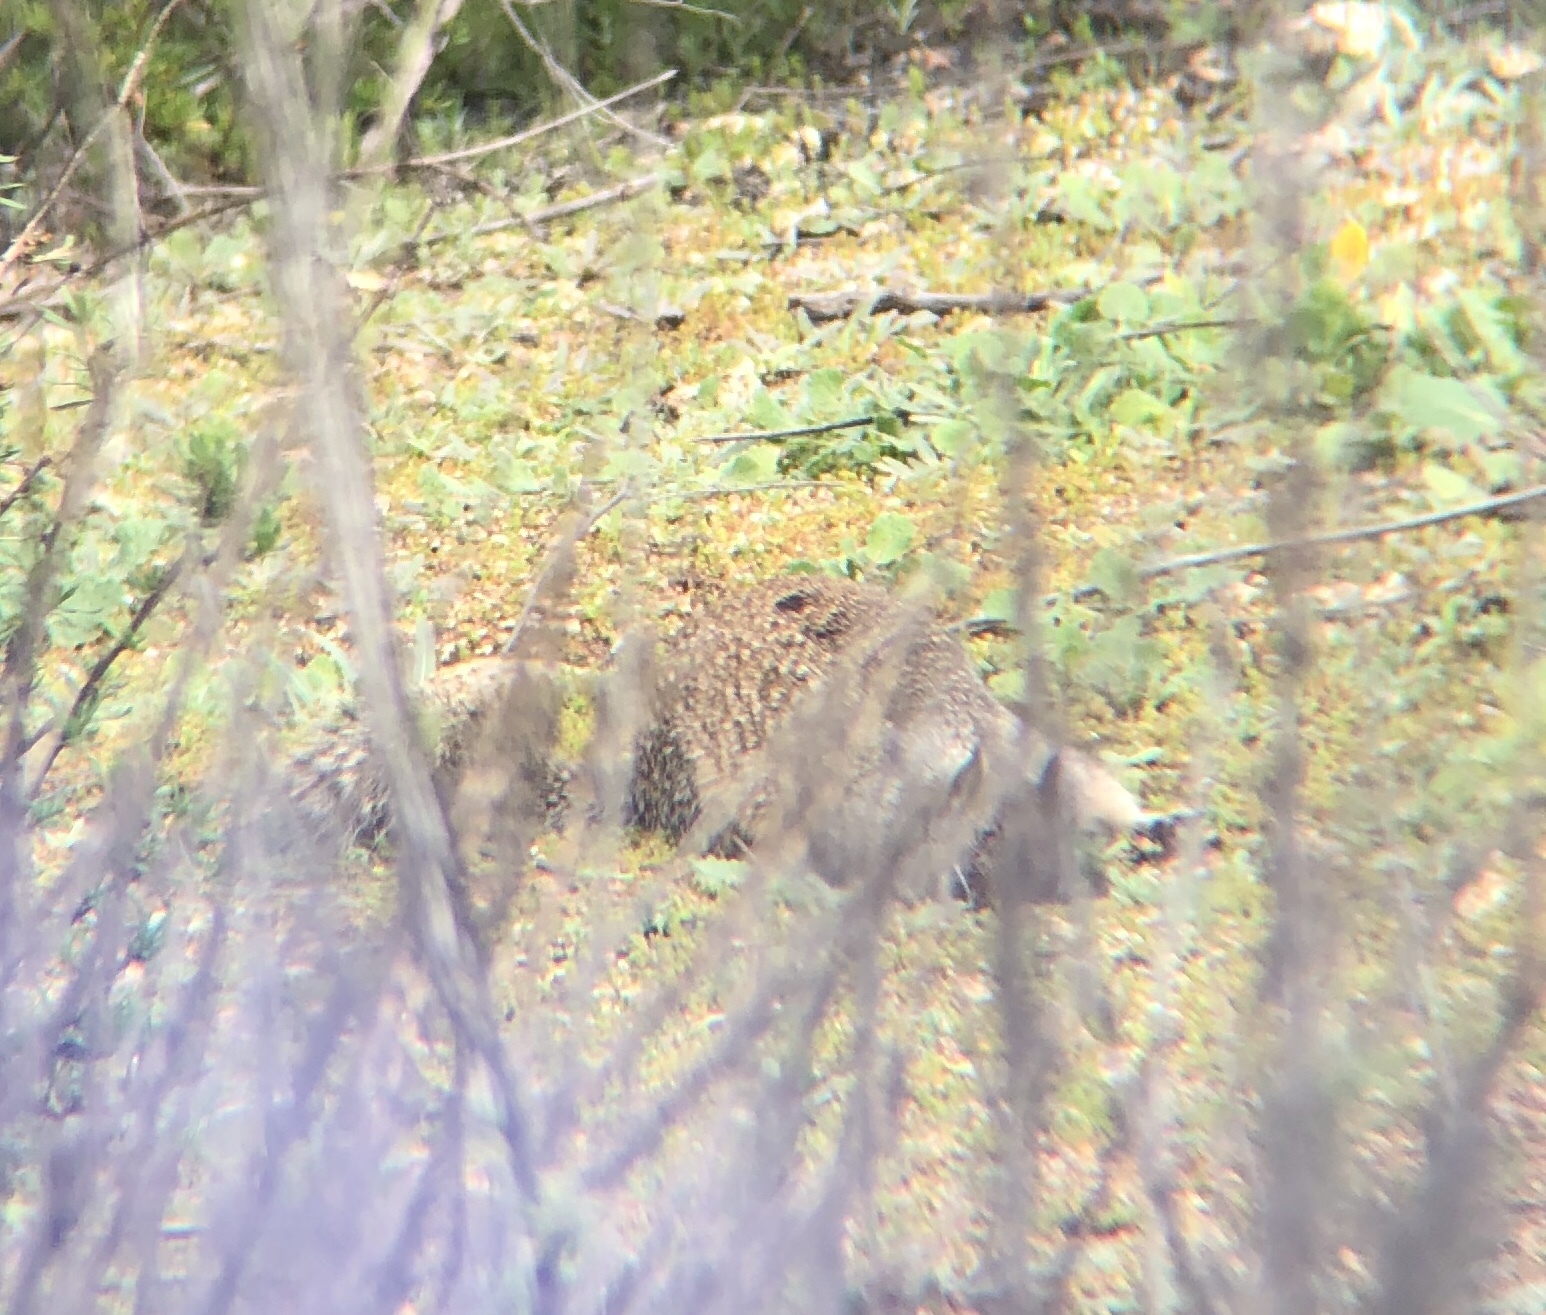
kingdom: Animalia
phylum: Chordata
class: Mammalia
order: Rodentia
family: Sciuridae
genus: Otospermophilus
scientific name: Otospermophilus beecheyi
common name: California ground squirrel
